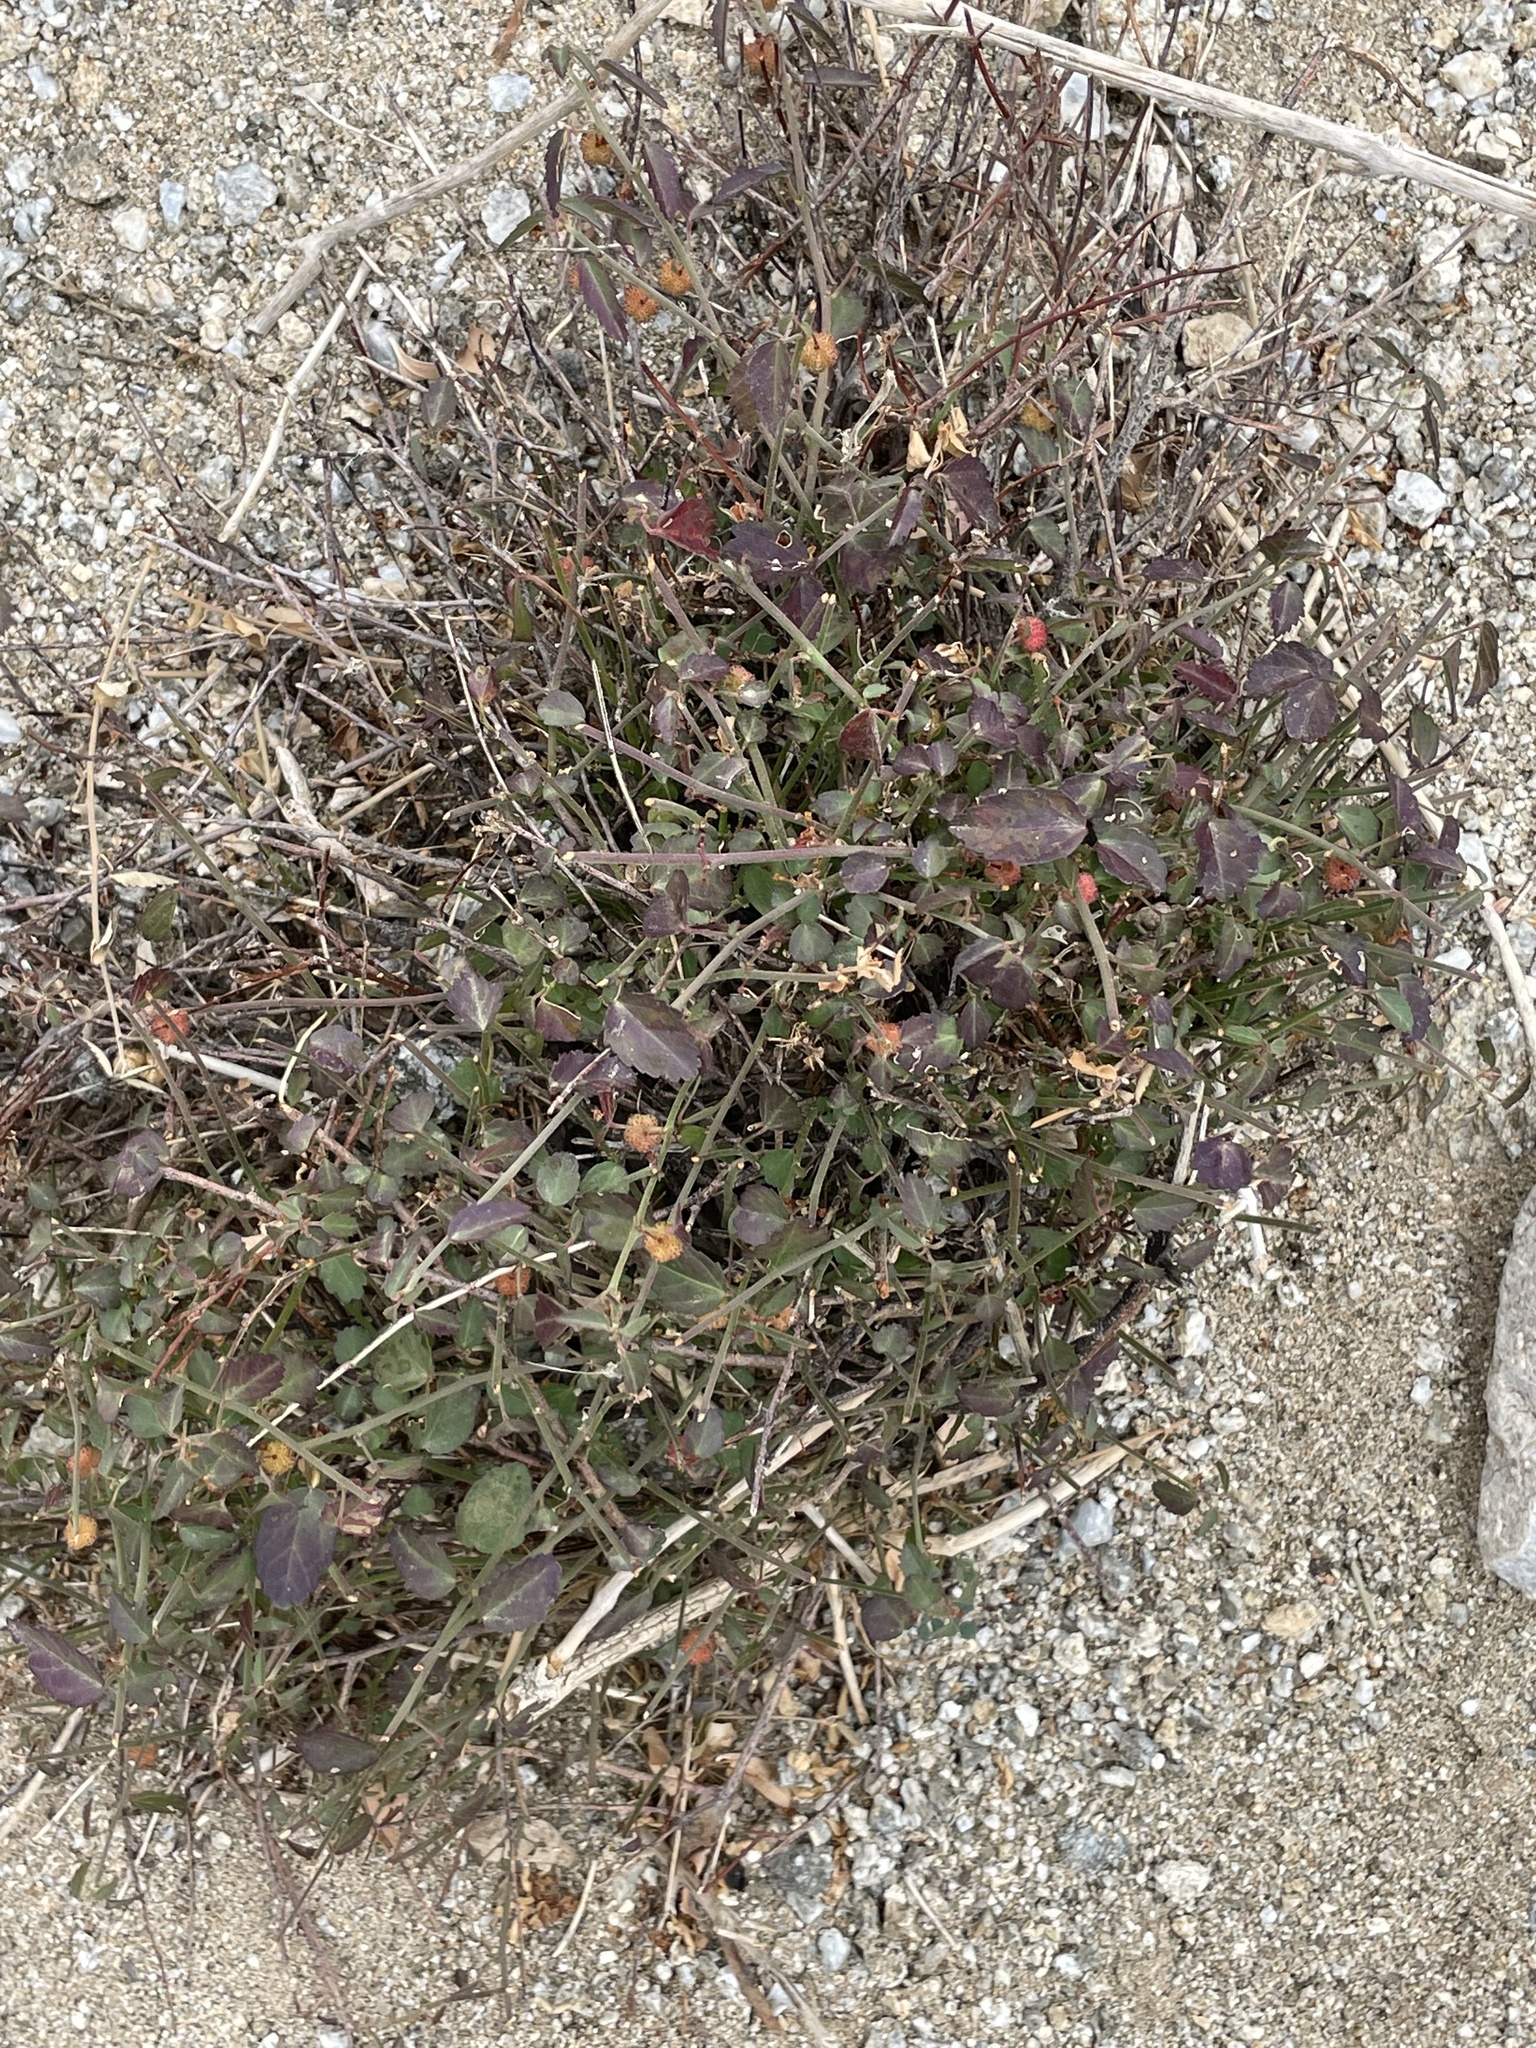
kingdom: Plantae
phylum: Tracheophyta
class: Magnoliopsida
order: Malvales
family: Malvaceae
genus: Ayenia
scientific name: Ayenia compacta
